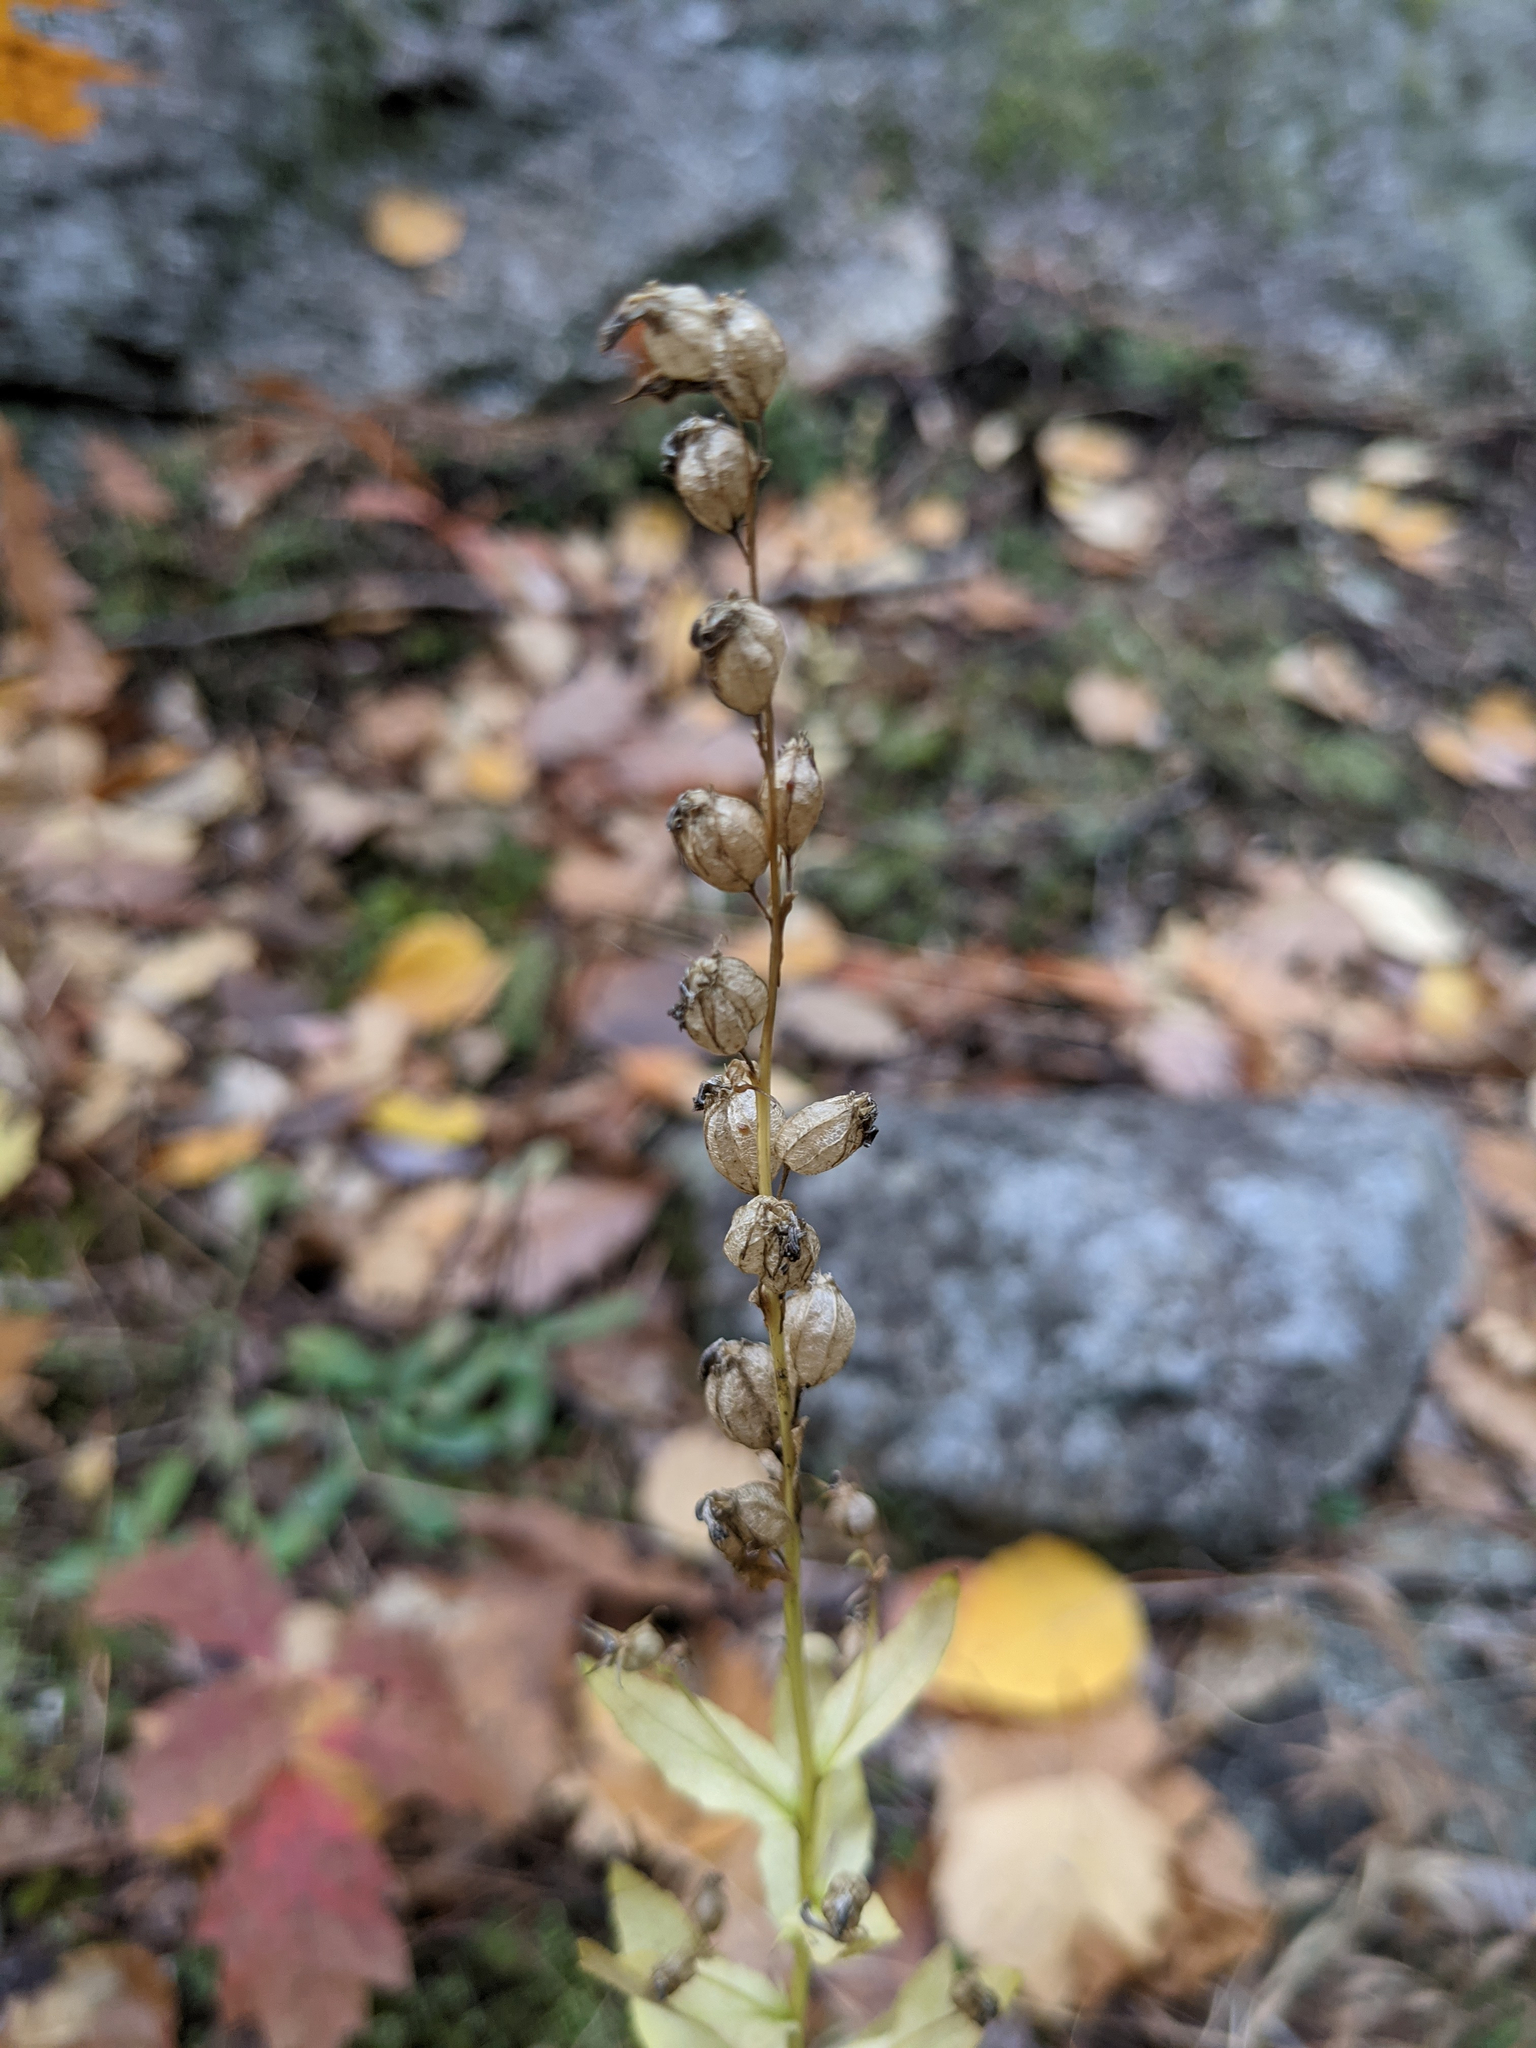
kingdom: Plantae
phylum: Tracheophyta
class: Magnoliopsida
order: Asterales
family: Campanulaceae
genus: Lobelia
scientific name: Lobelia inflata
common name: Indian tobacco
